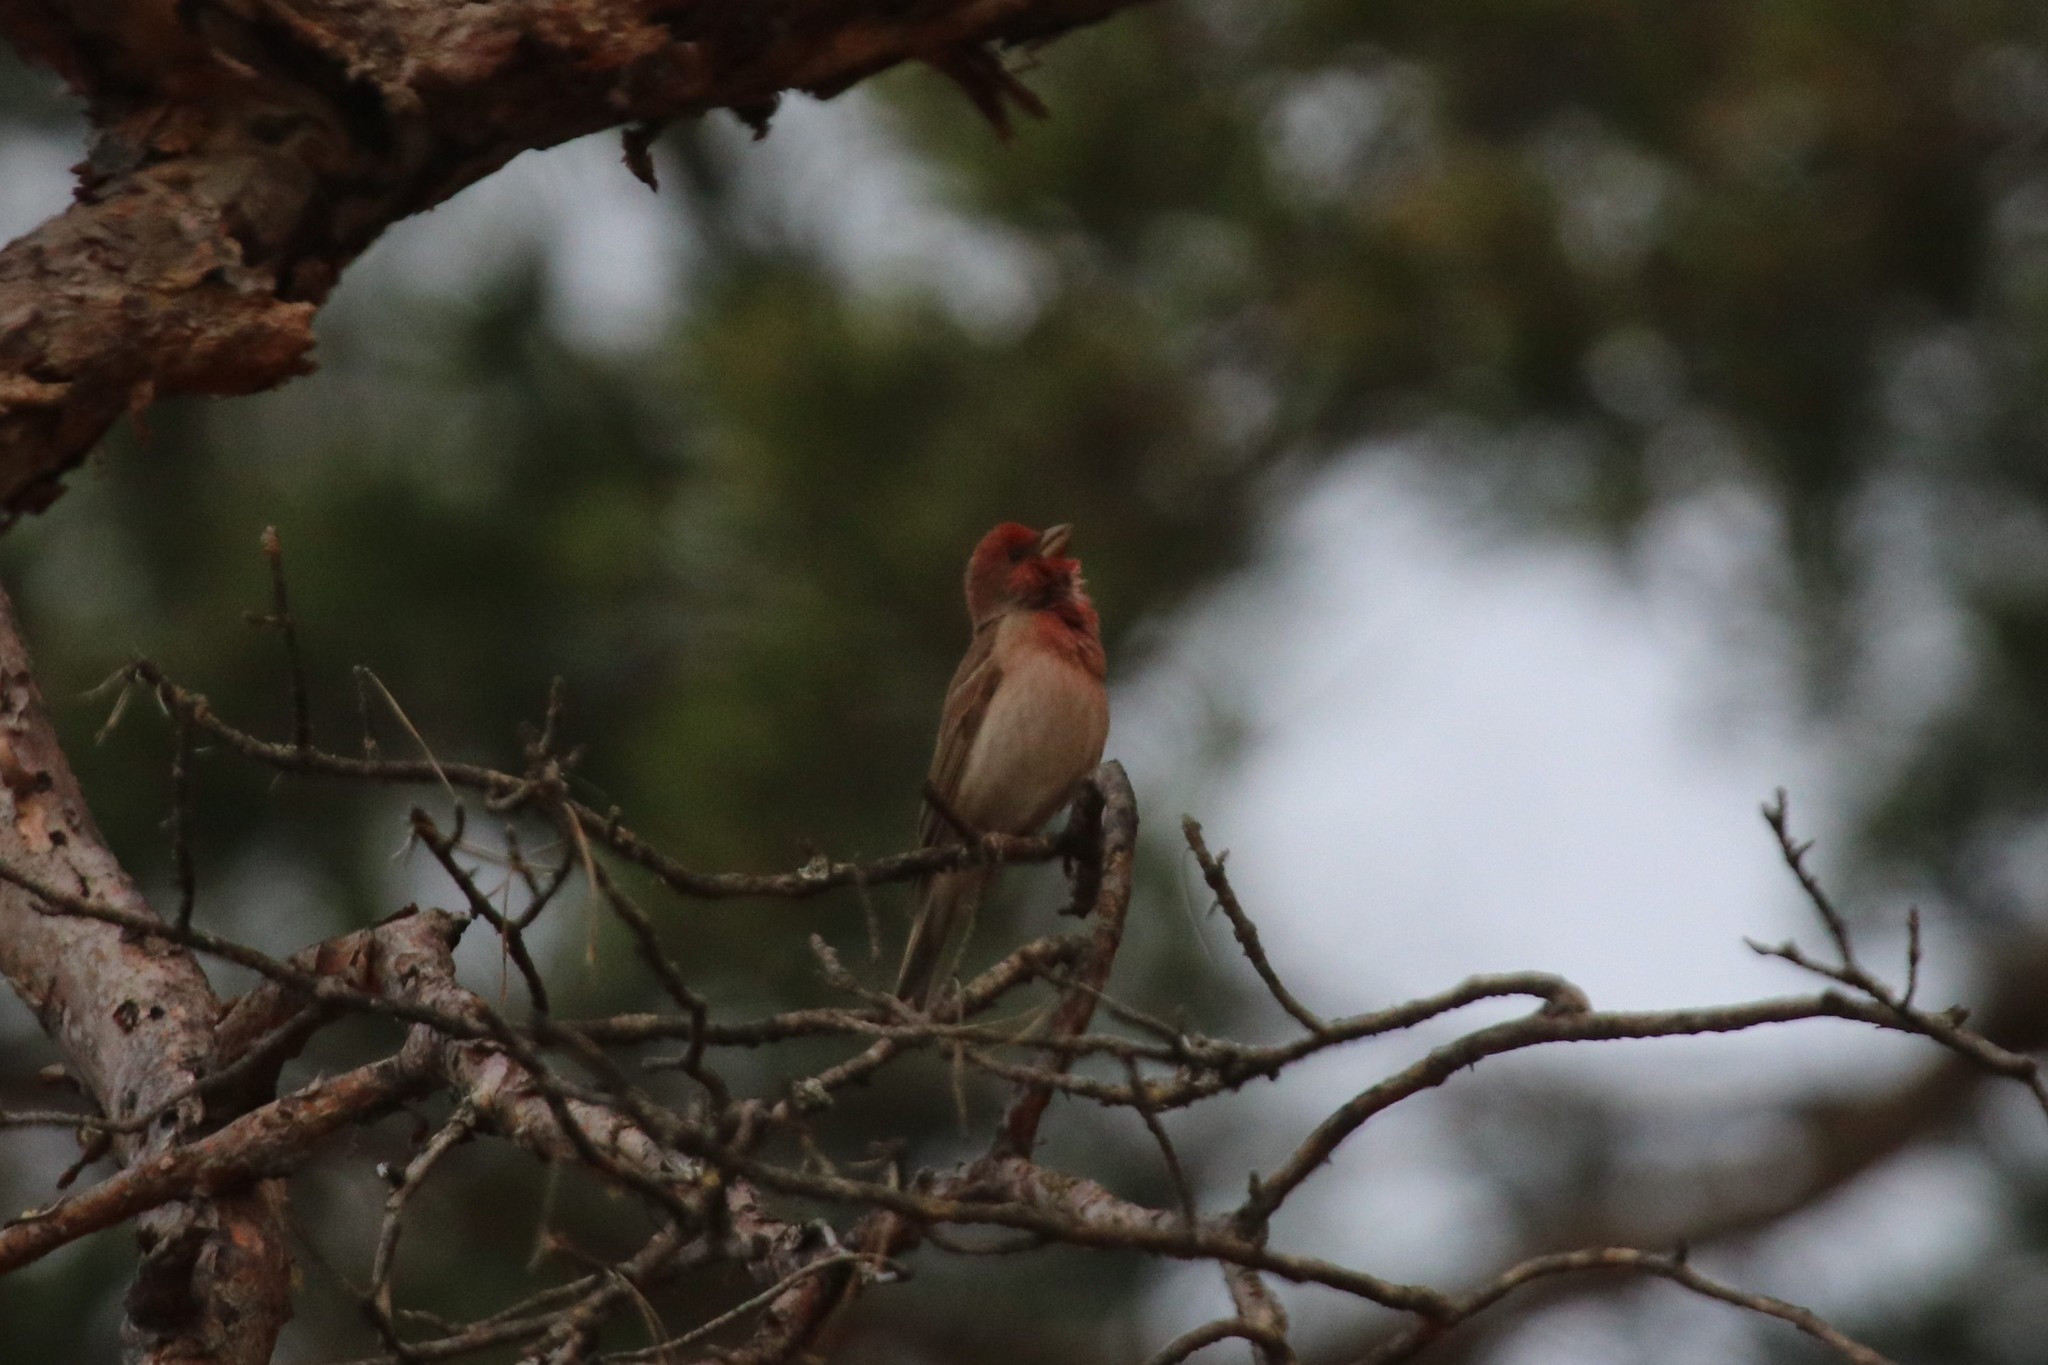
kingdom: Animalia
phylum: Chordata
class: Aves
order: Passeriformes
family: Fringillidae
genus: Carpodacus
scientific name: Carpodacus erythrinus
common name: Common rosefinch
